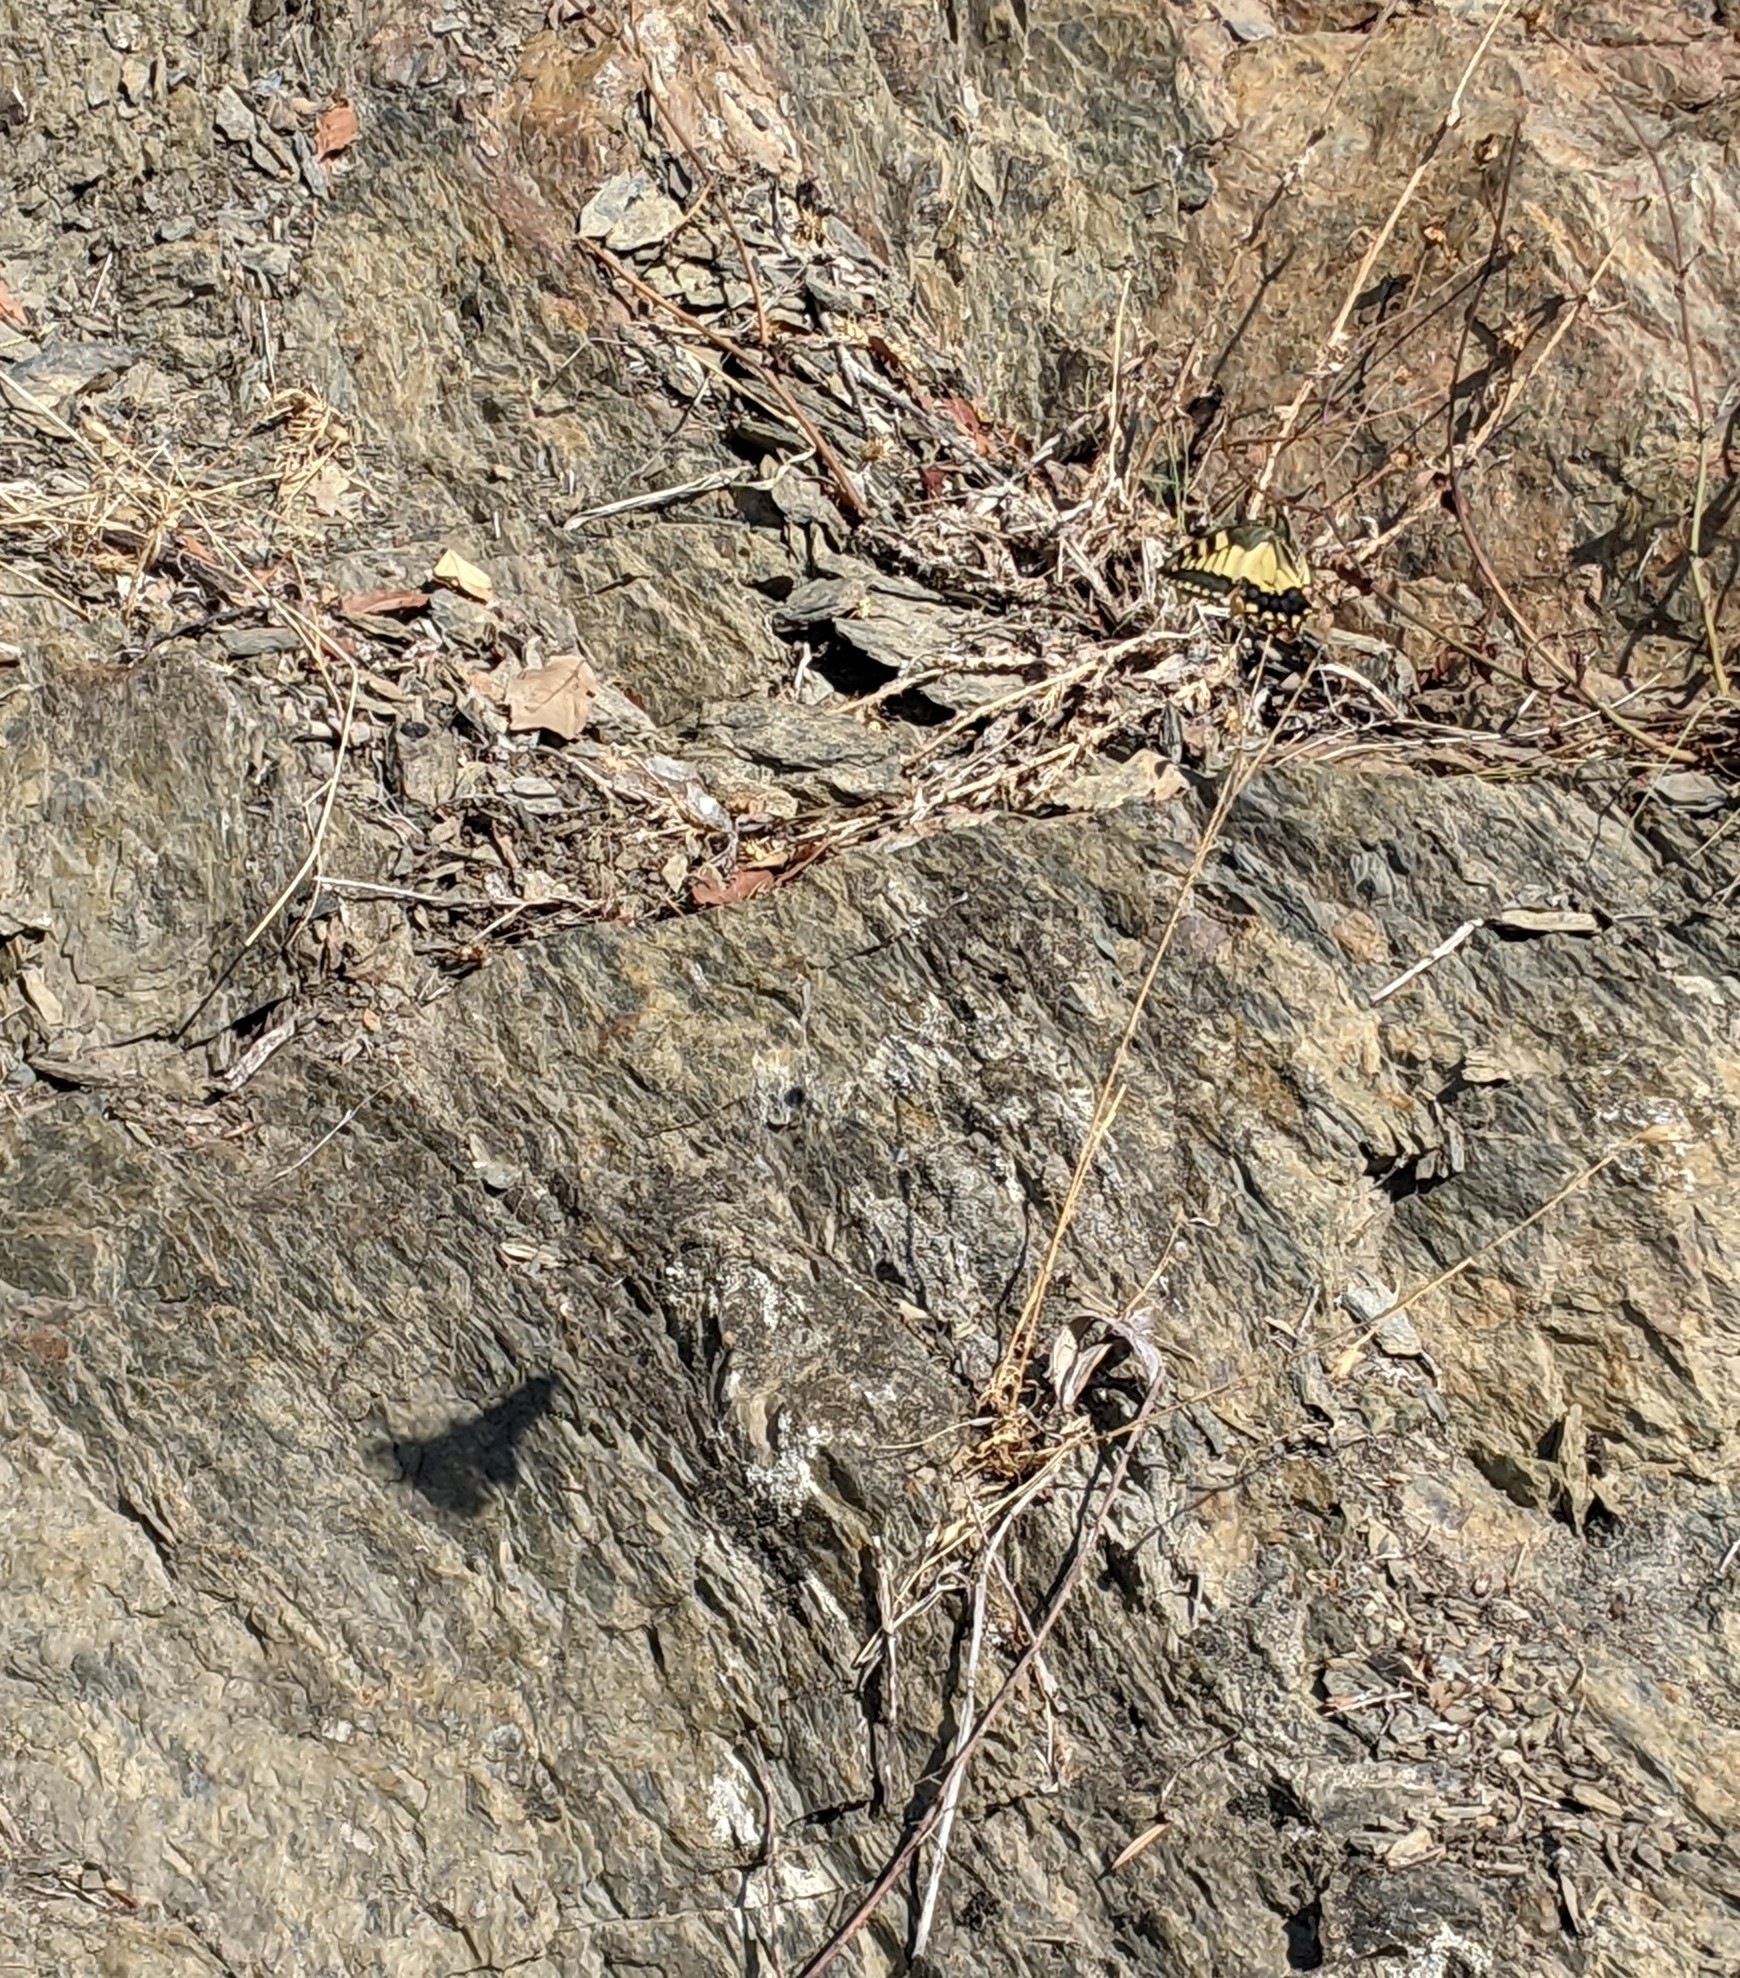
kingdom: Animalia
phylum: Arthropoda
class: Insecta
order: Lepidoptera
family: Papilionidae
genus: Papilio
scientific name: Papilio machaon
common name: Swallowtail
